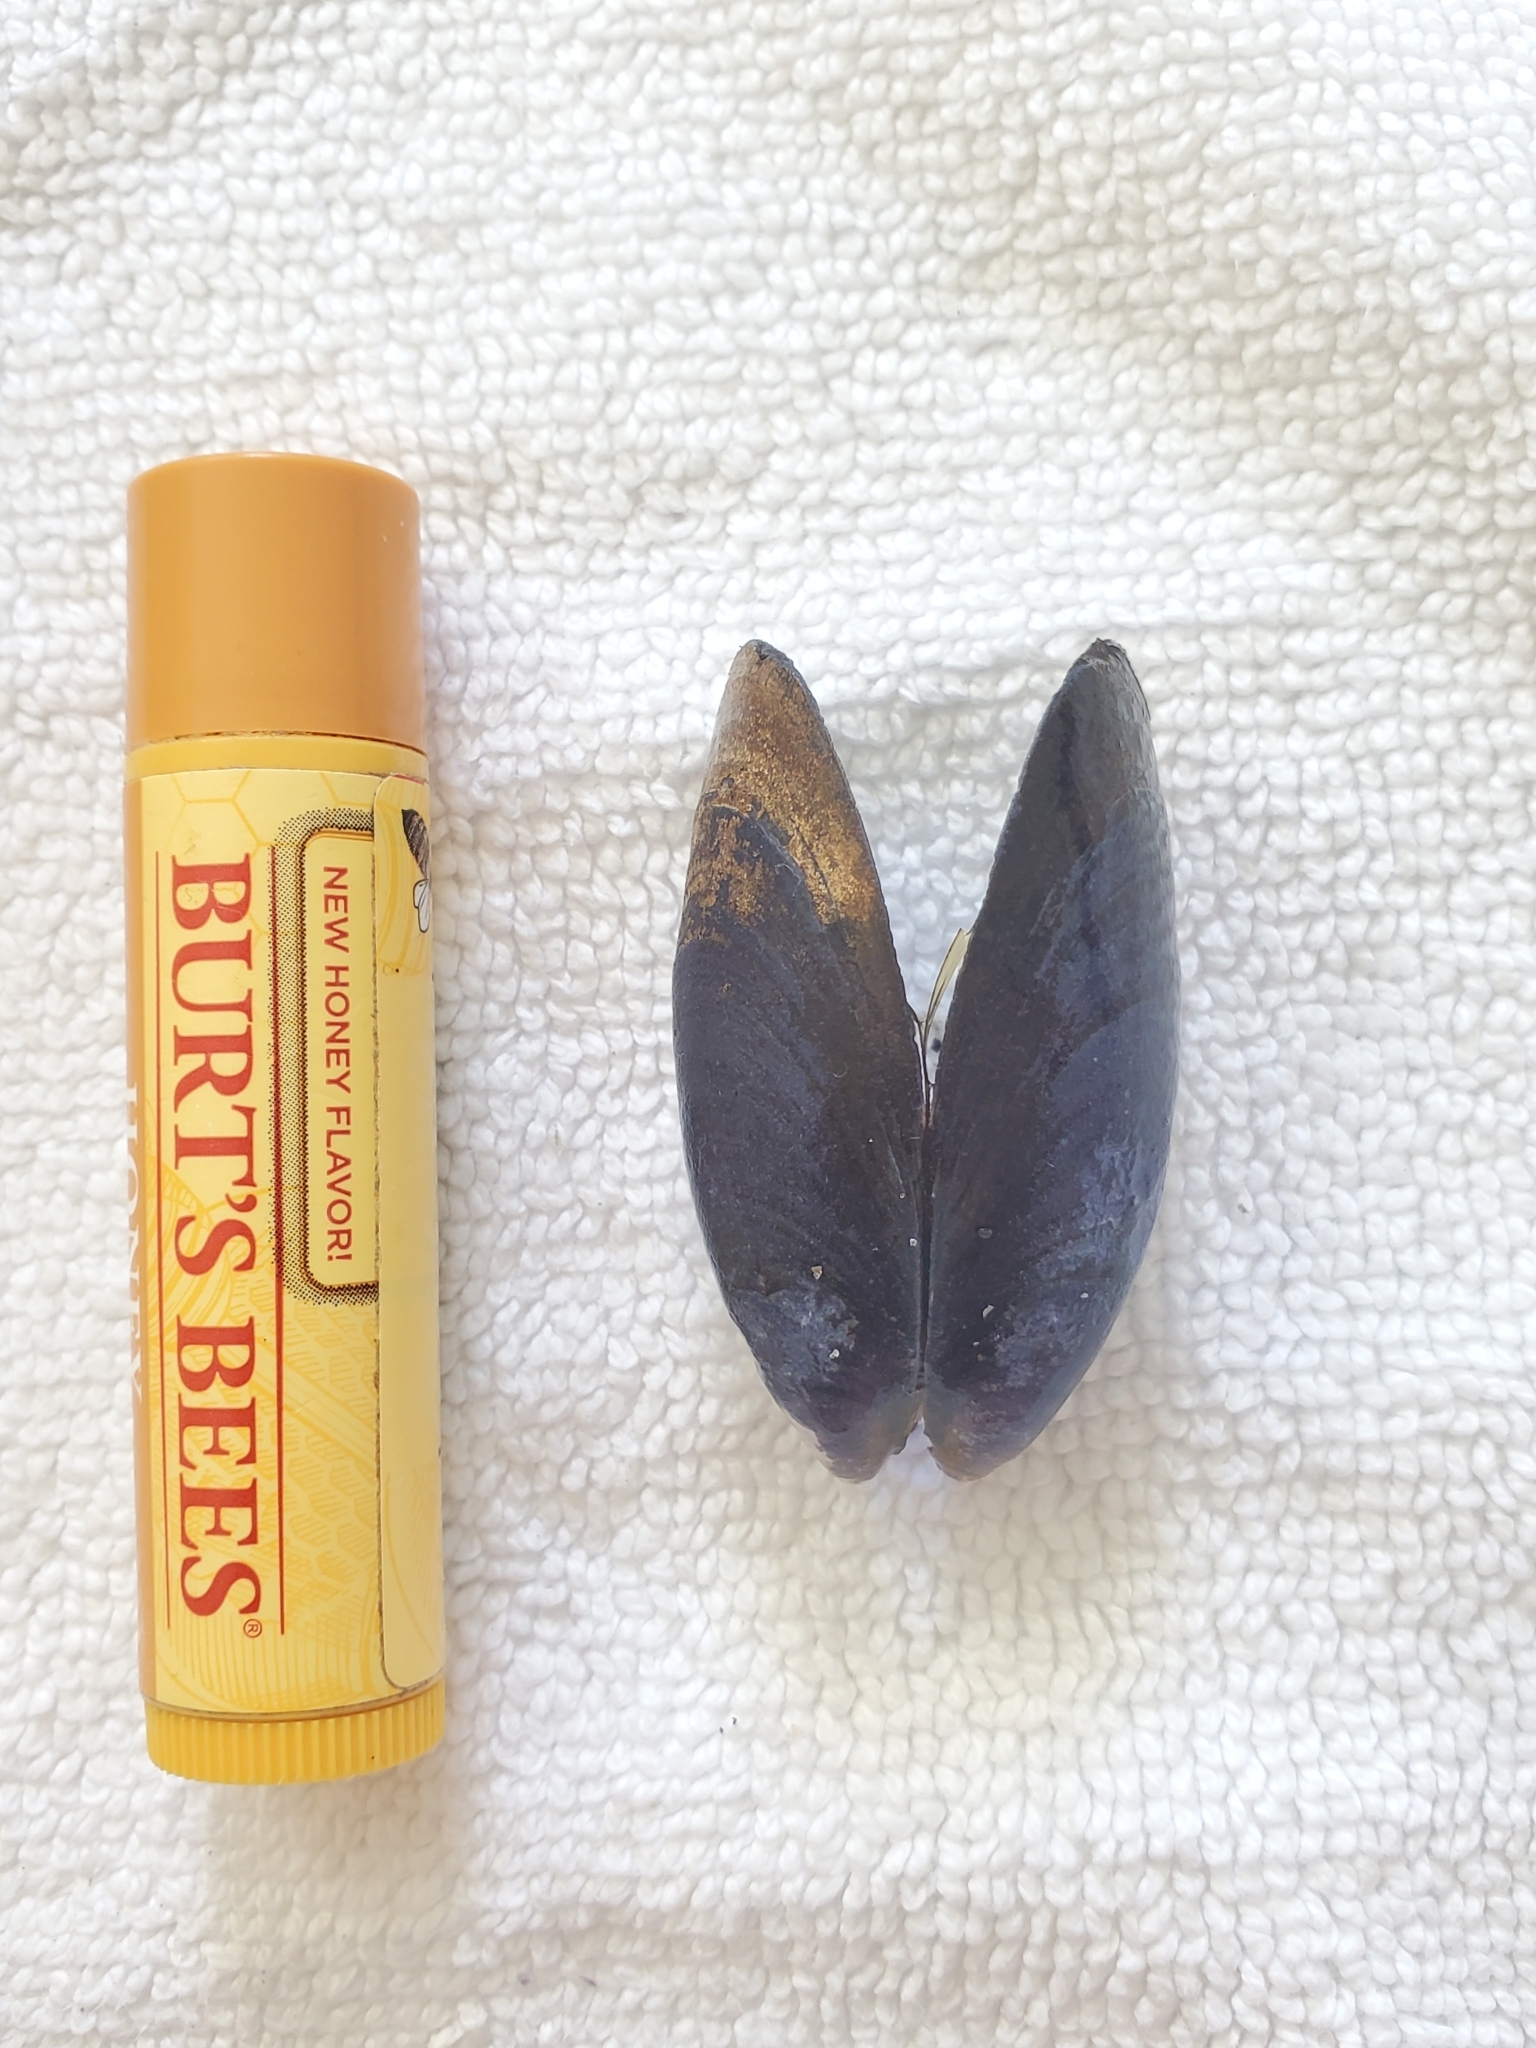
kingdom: Animalia
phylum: Mollusca
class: Bivalvia
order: Mytilida
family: Mytilidae
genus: Mytilus
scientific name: Mytilus edulis
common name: Blue mussel
